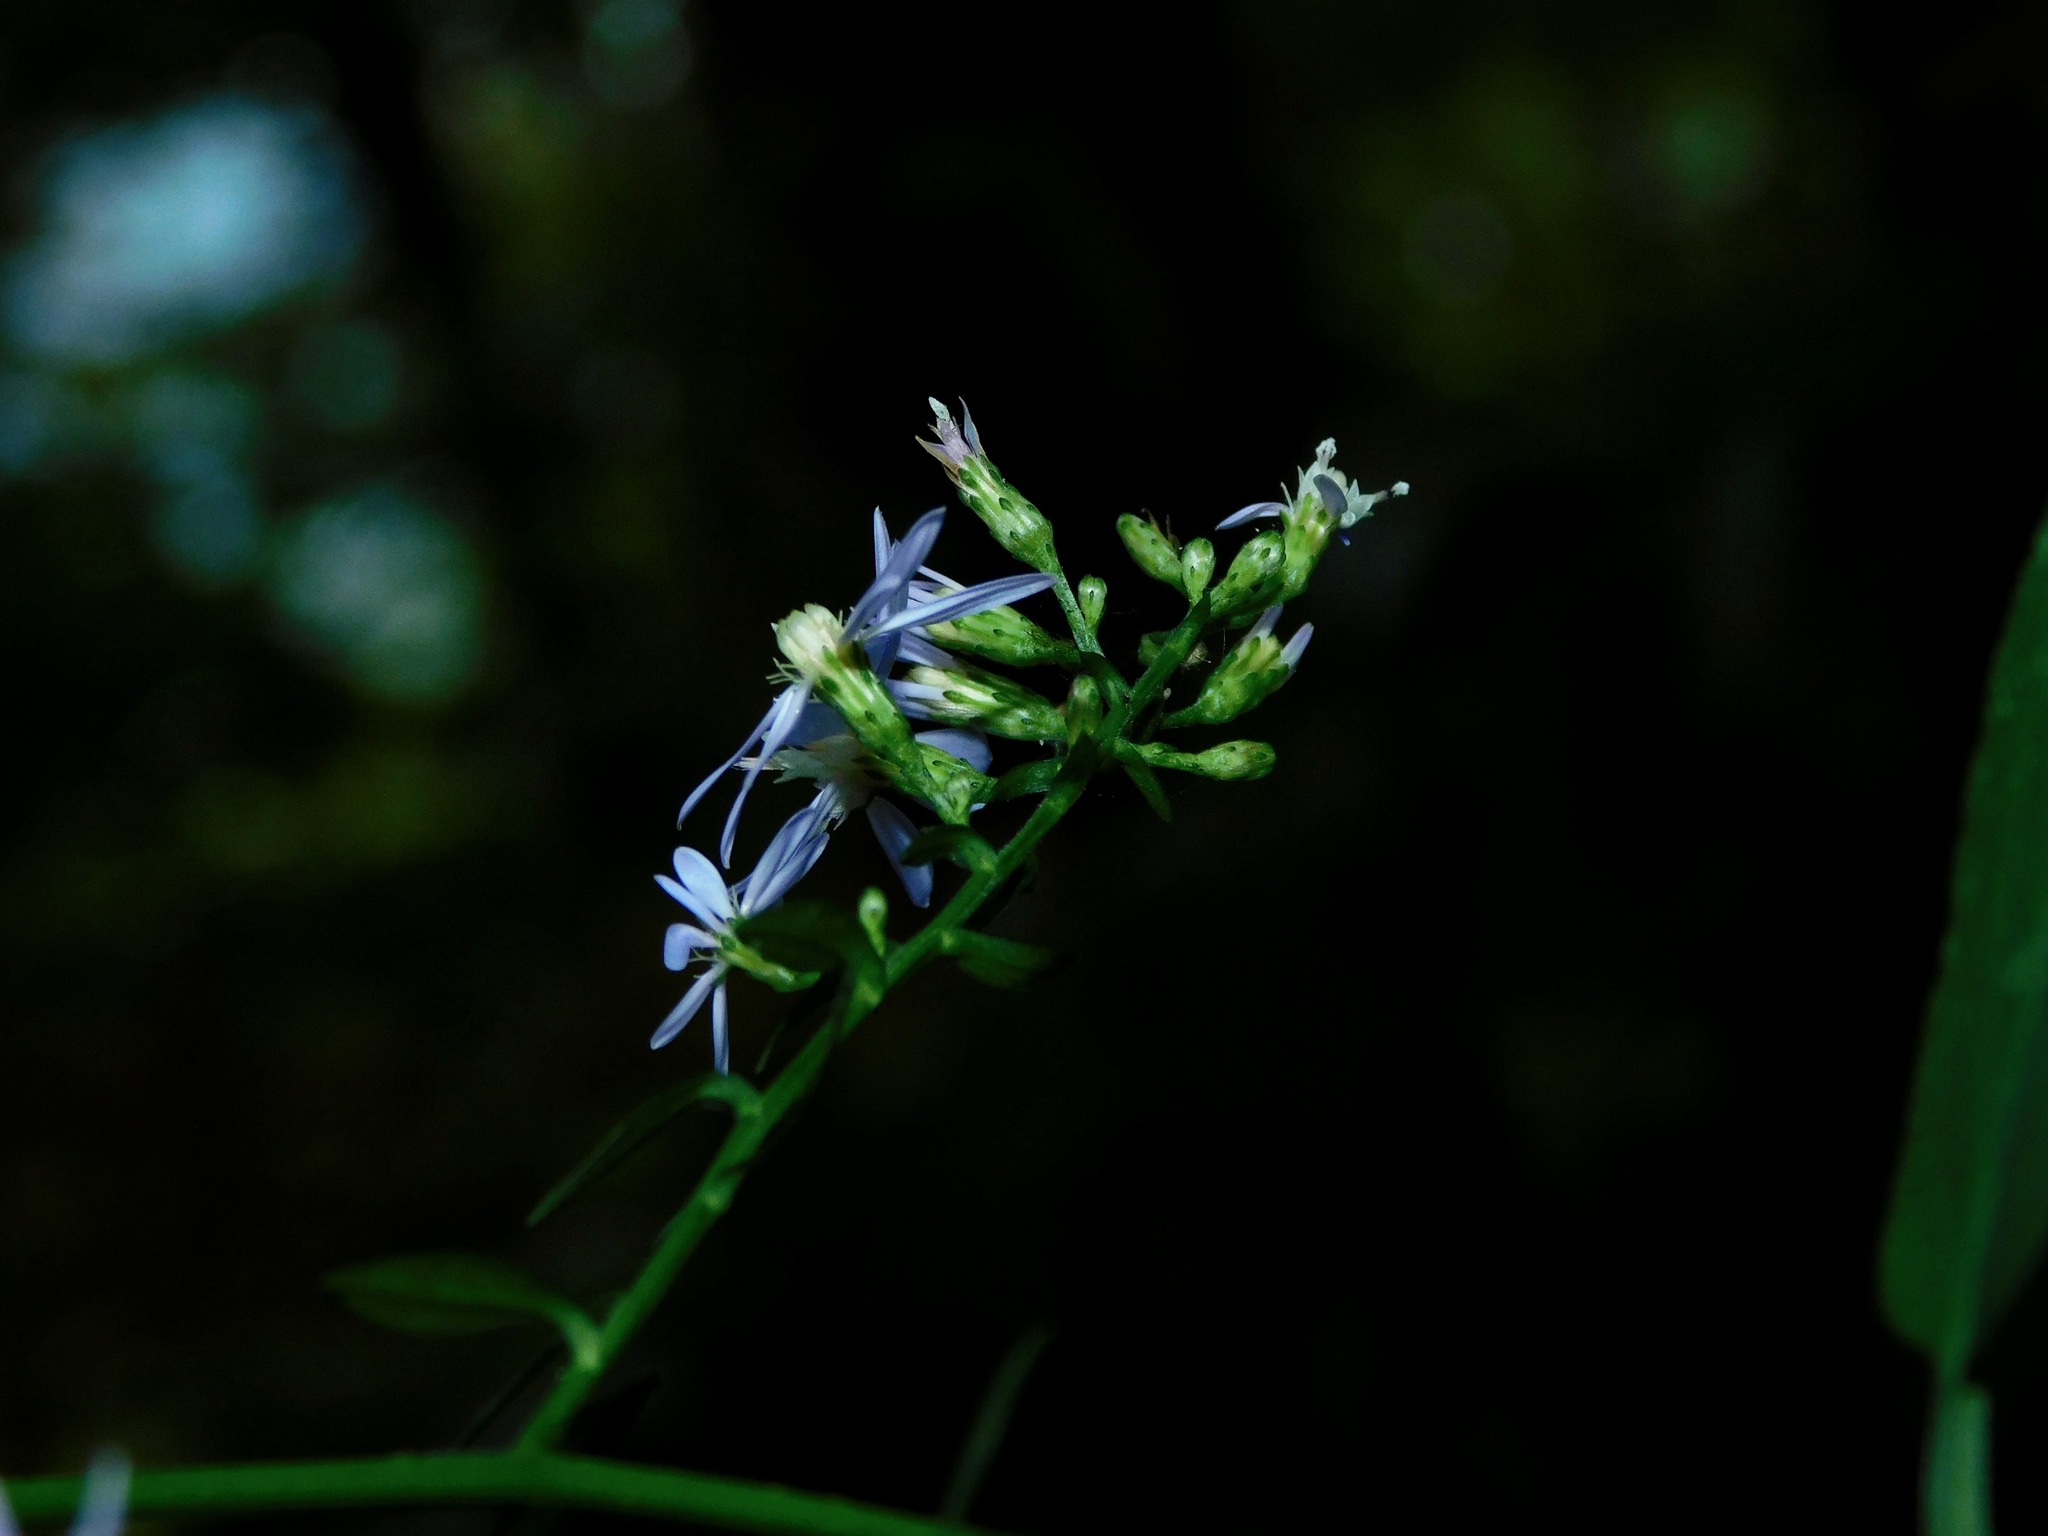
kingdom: Plantae
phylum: Tracheophyta
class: Magnoliopsida
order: Asterales
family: Asteraceae
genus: Symphyotrichum
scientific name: Symphyotrichum cordifolium
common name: Beeweed
